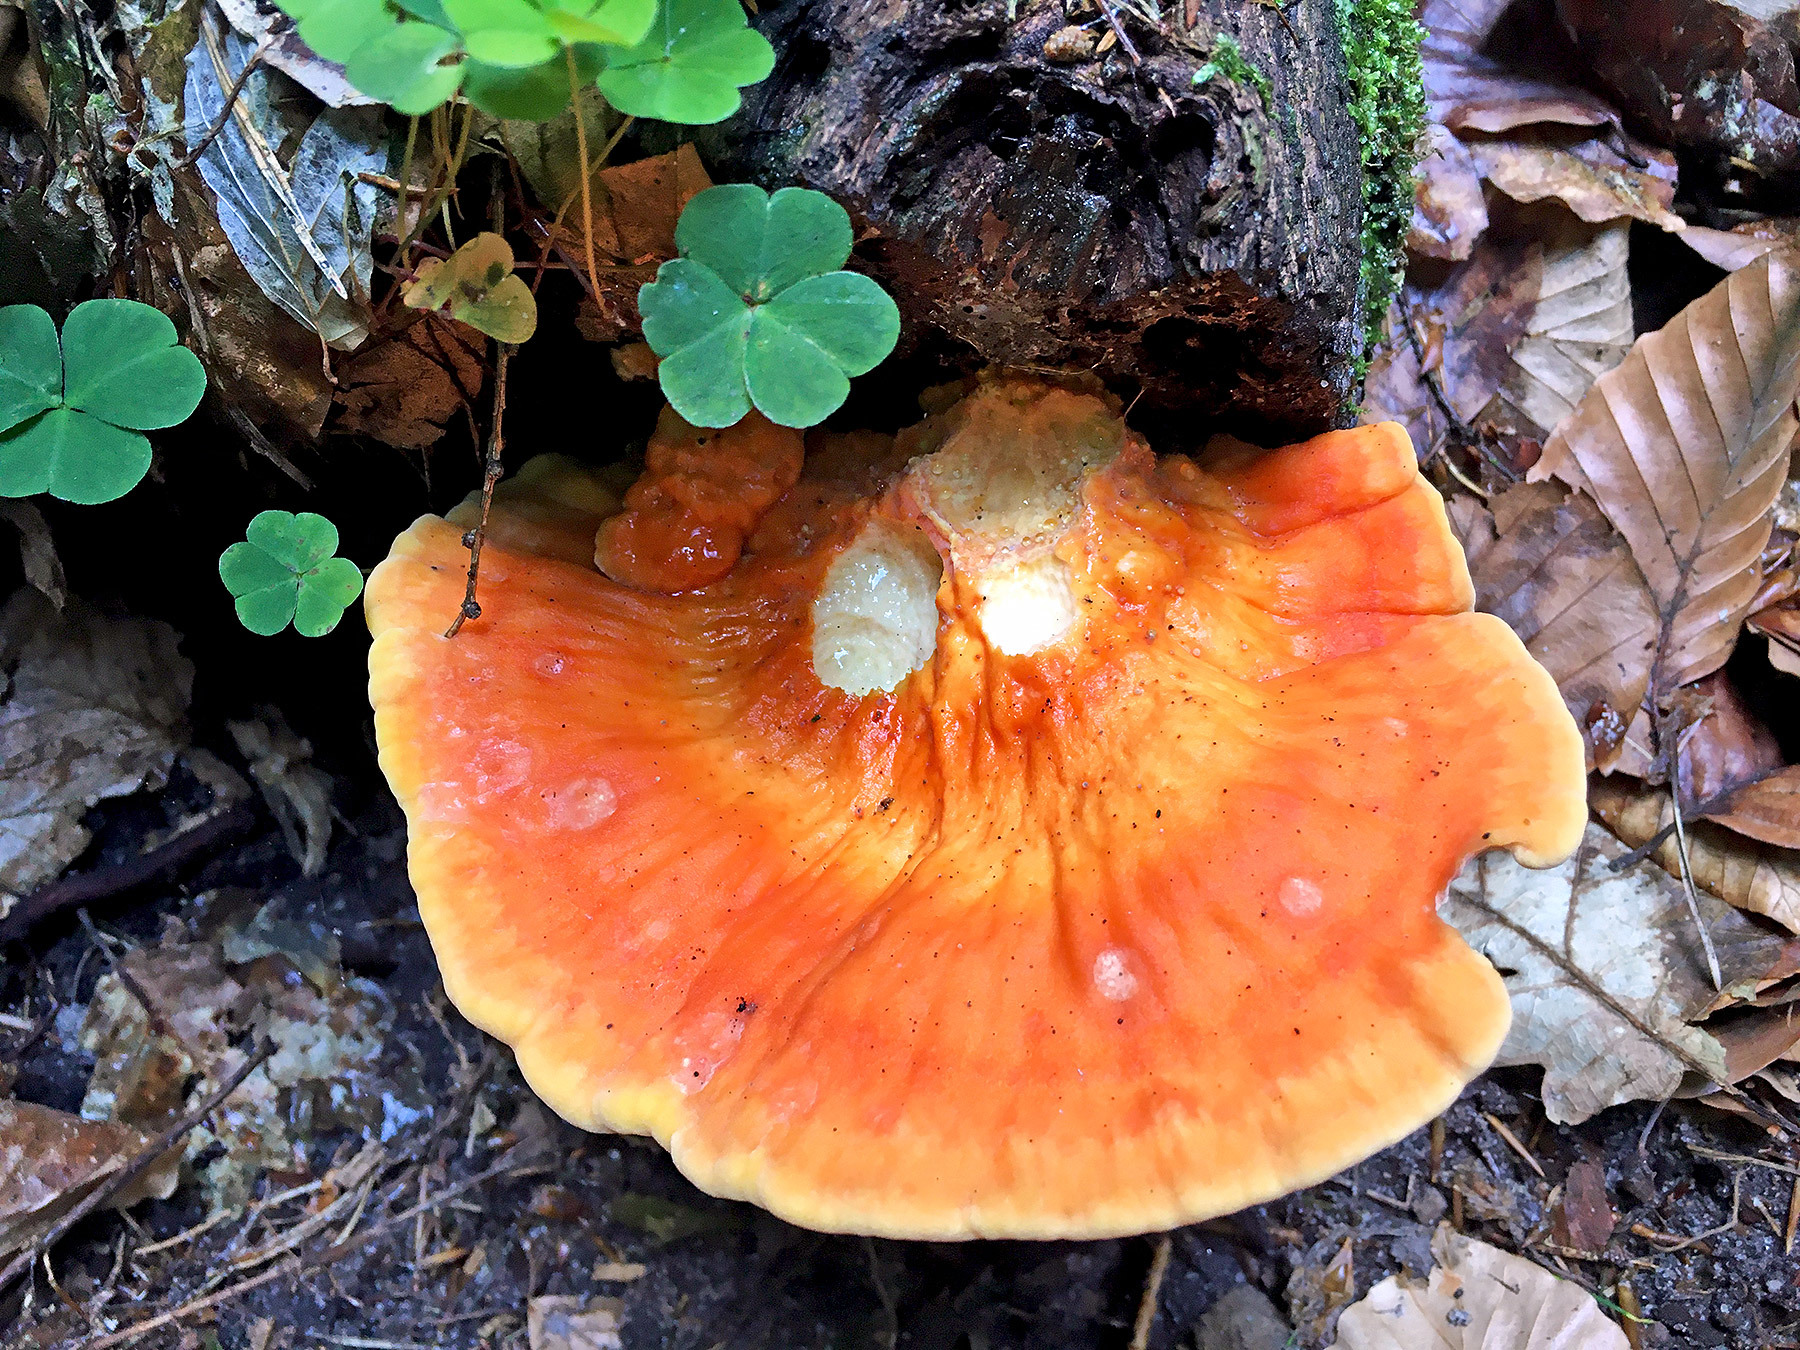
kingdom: Fungi
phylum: Basidiomycota
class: Agaricomycetes
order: Polyporales
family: Laetiporaceae
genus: Laetiporus
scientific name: Laetiporus sulphureus
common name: Chicken of the woods
